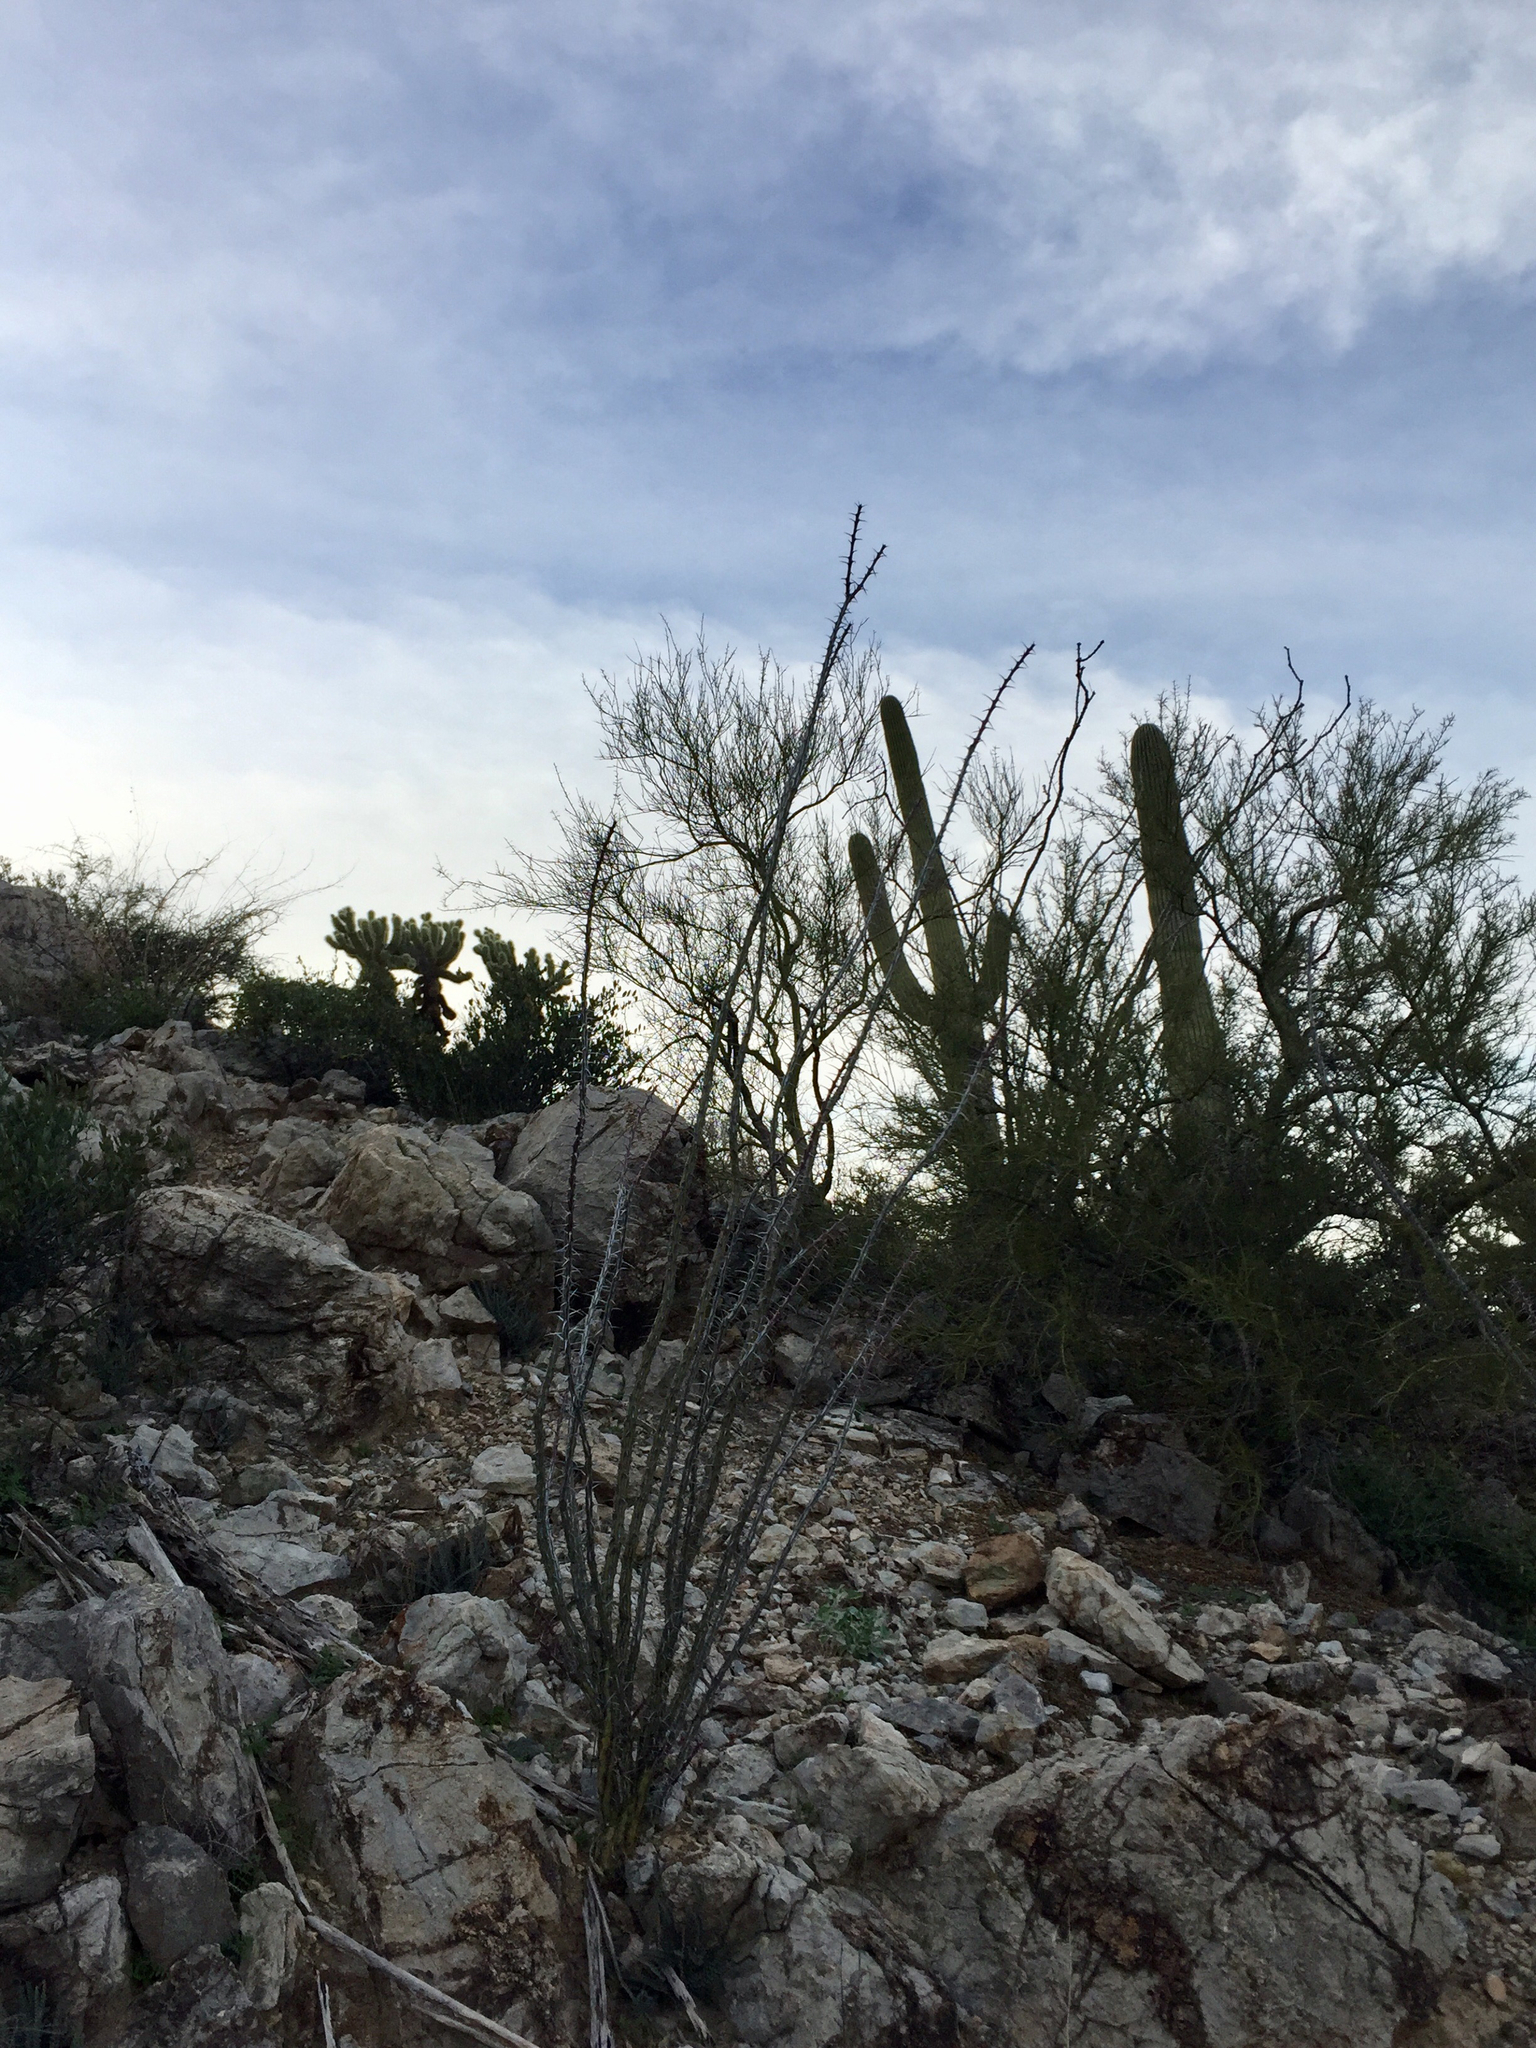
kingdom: Plantae
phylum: Tracheophyta
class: Magnoliopsida
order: Ericales
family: Fouquieriaceae
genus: Fouquieria
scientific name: Fouquieria splendens
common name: Vine-cactus
